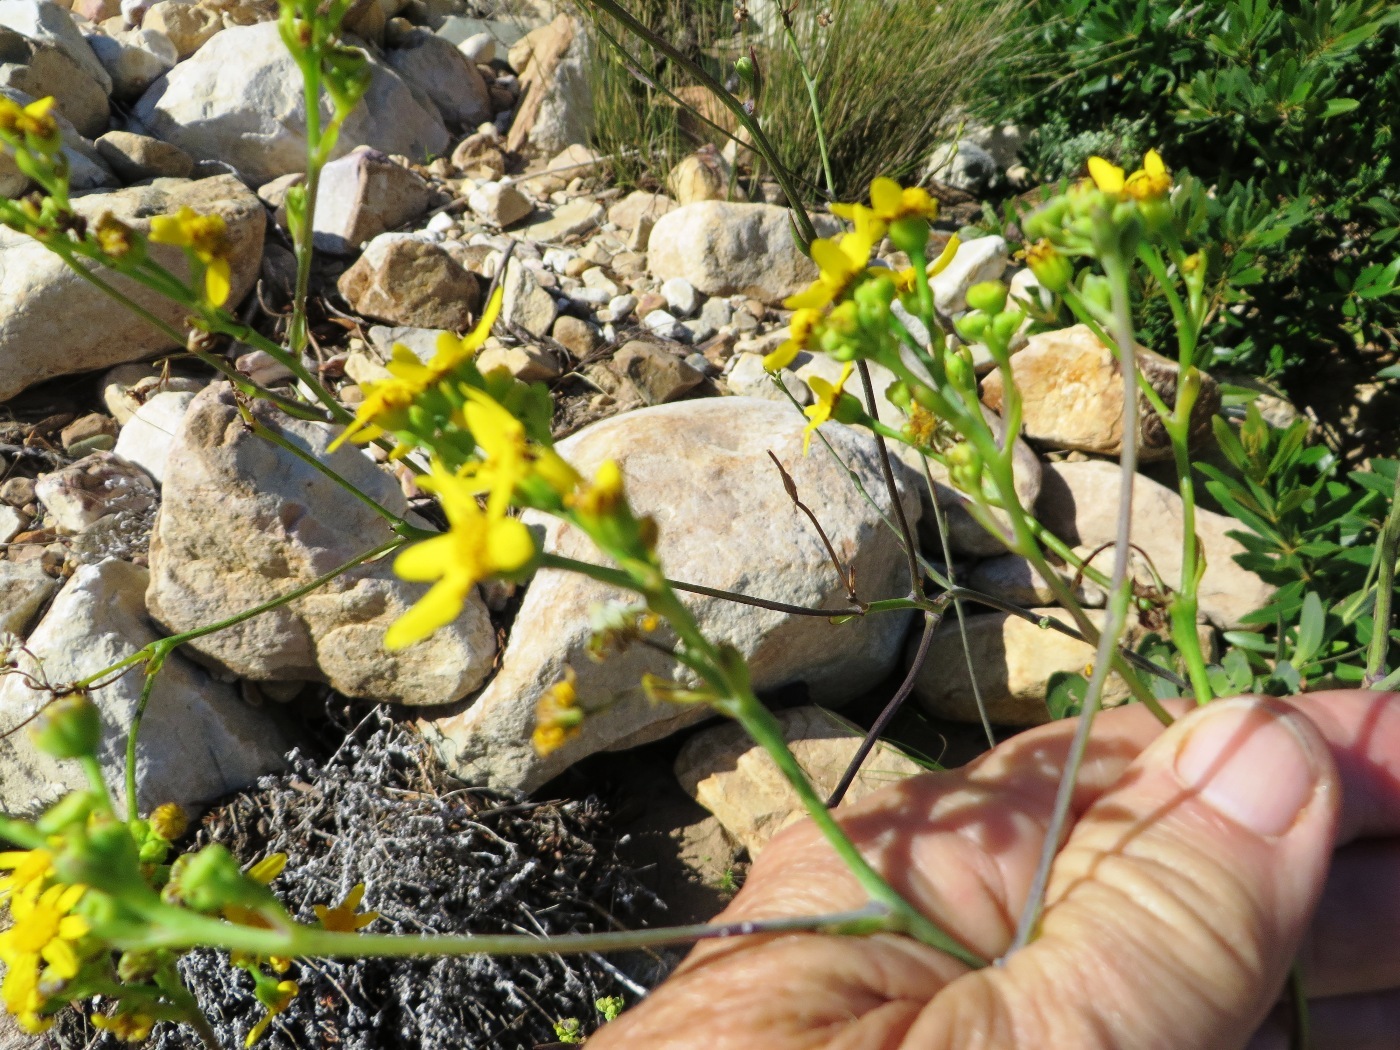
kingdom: Plantae
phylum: Tracheophyta
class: Magnoliopsida
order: Asterales
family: Asteraceae
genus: Othonna
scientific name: Othonna quinquedentata
